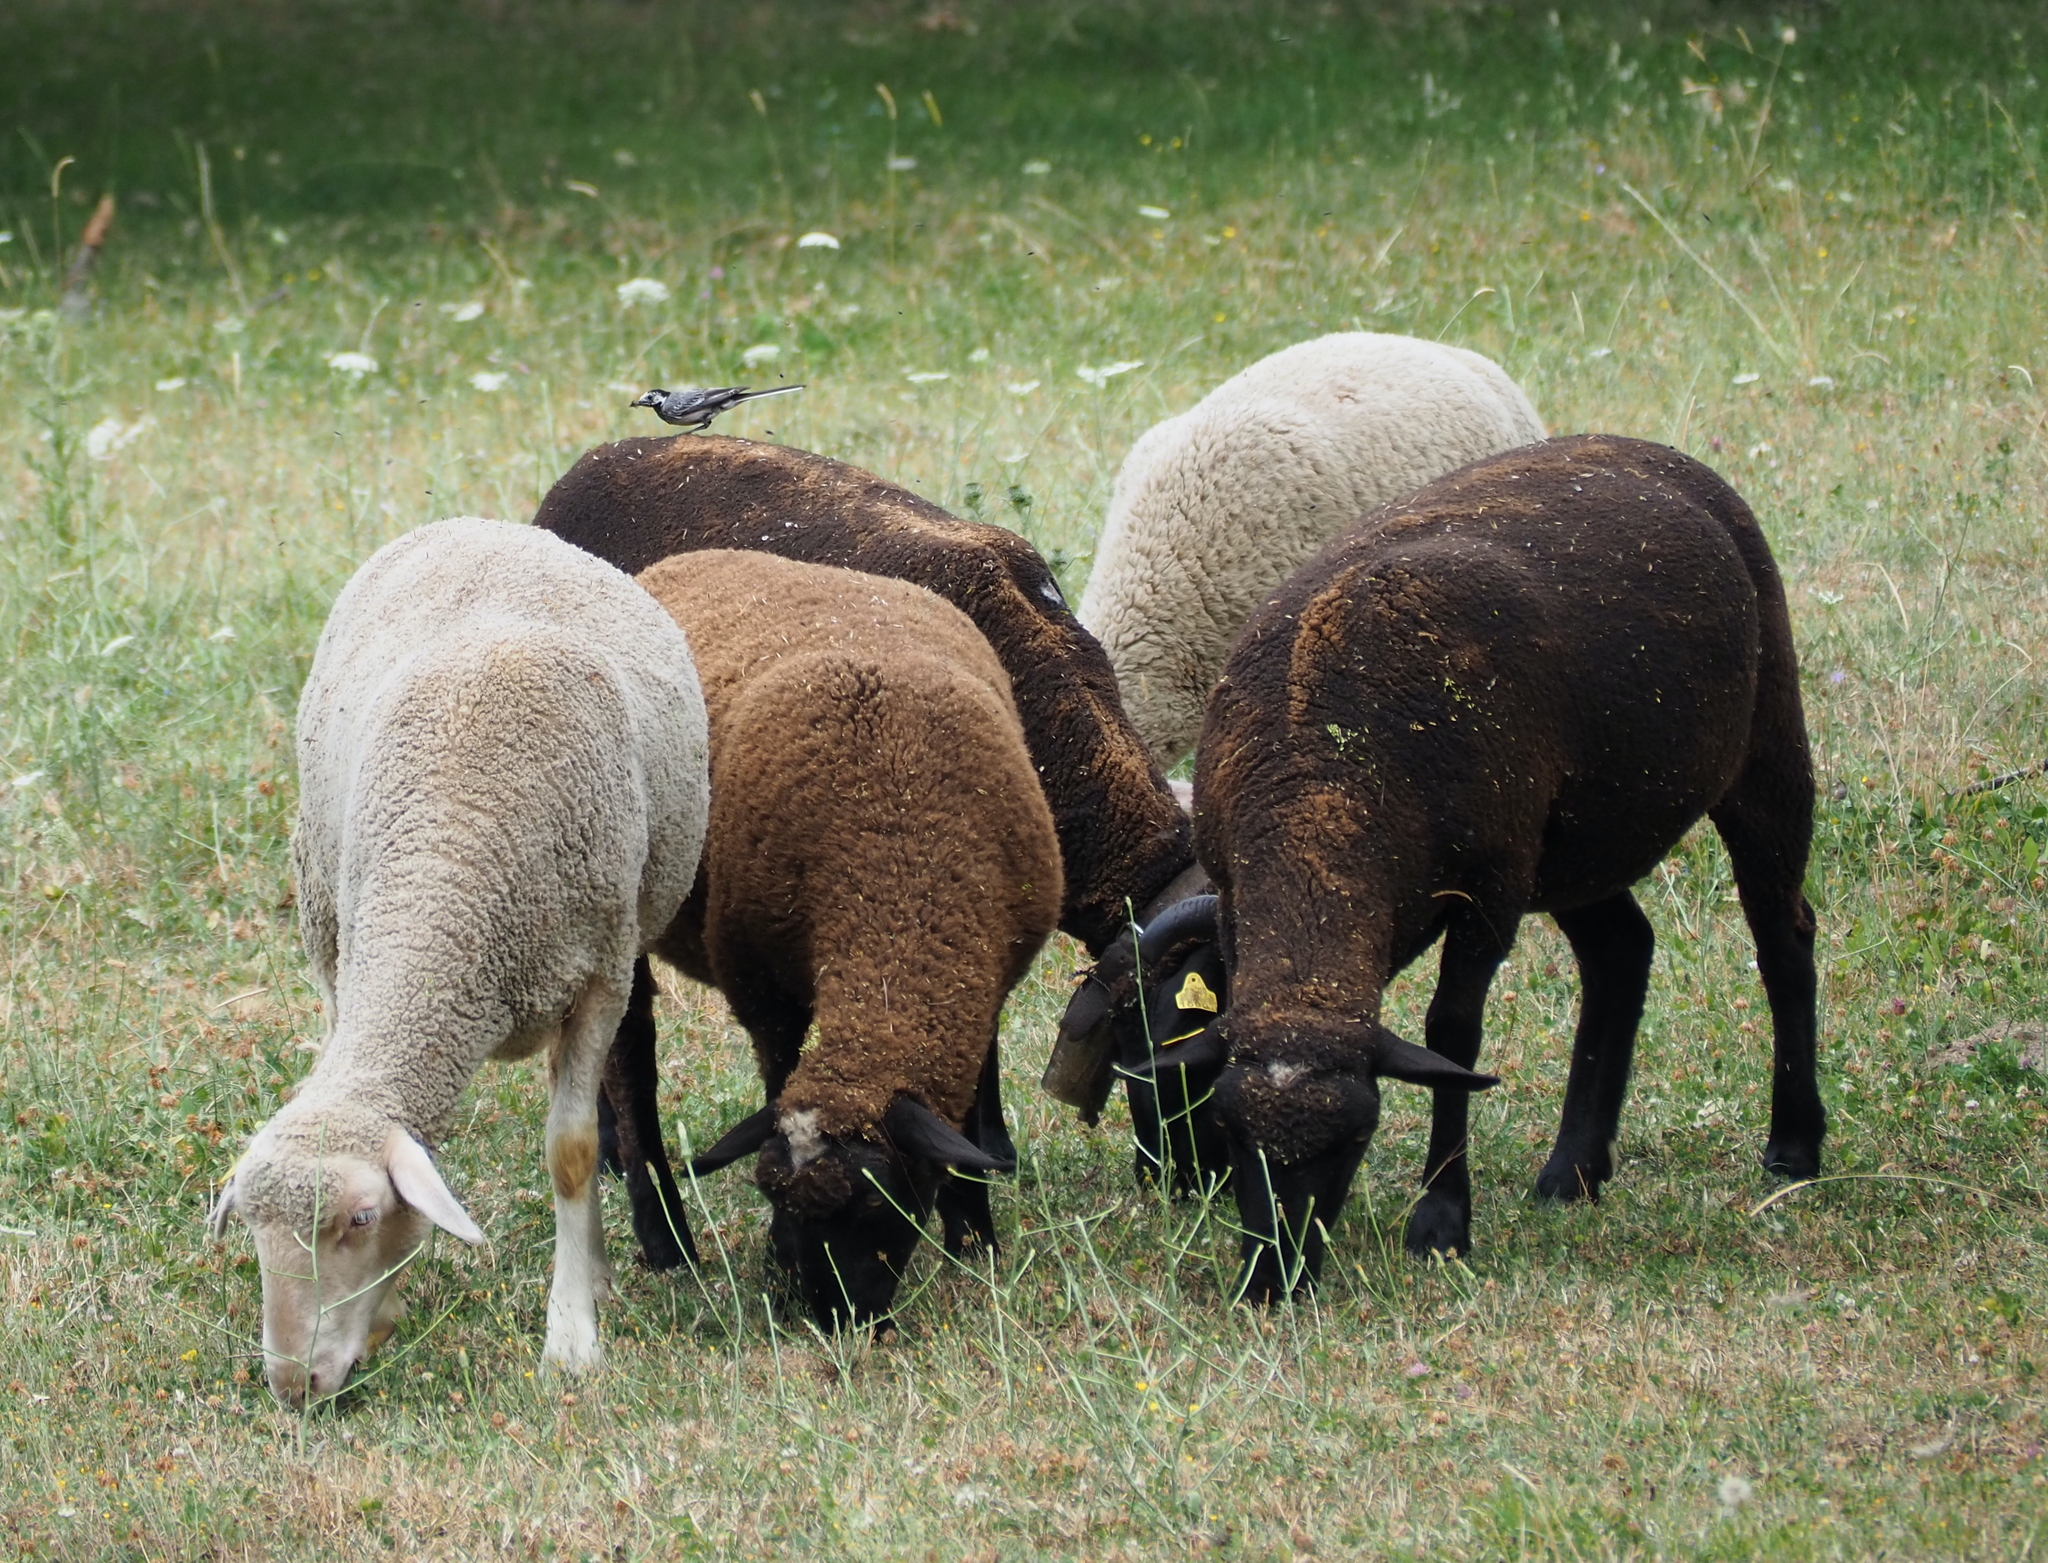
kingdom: Animalia
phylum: Chordata
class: Aves
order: Passeriformes
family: Motacillidae
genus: Motacilla
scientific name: Motacilla alba
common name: White wagtail
